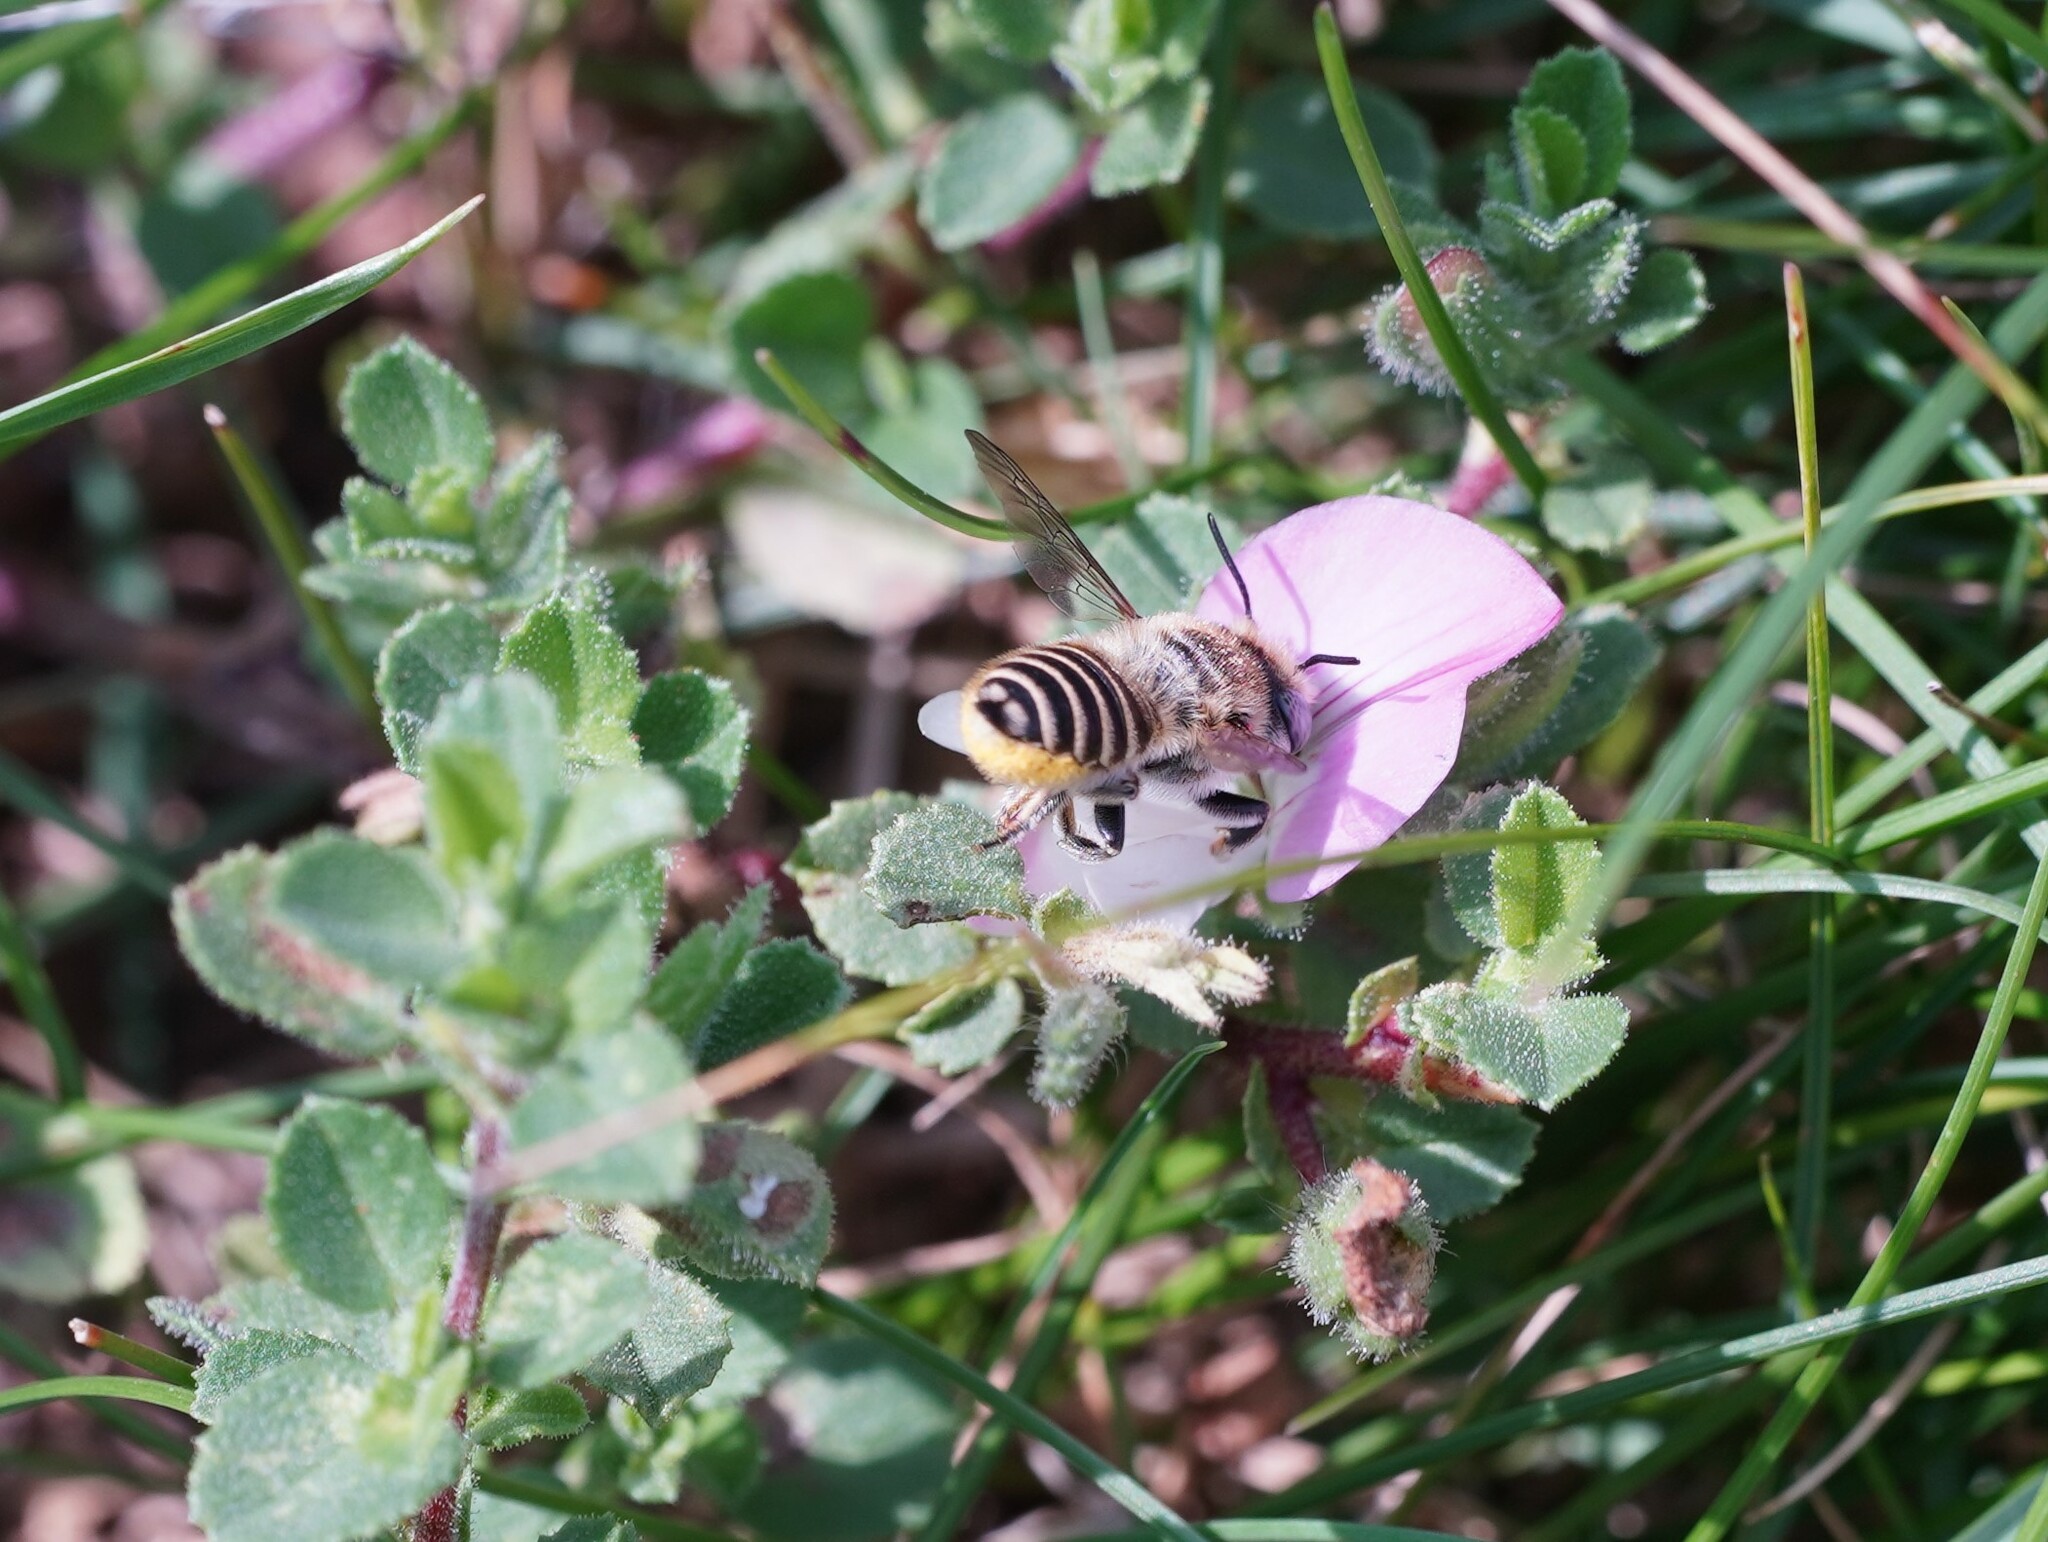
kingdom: Animalia
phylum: Arthropoda
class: Insecta
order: Hymenoptera
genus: Eutricharaea
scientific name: Eutricharaea
